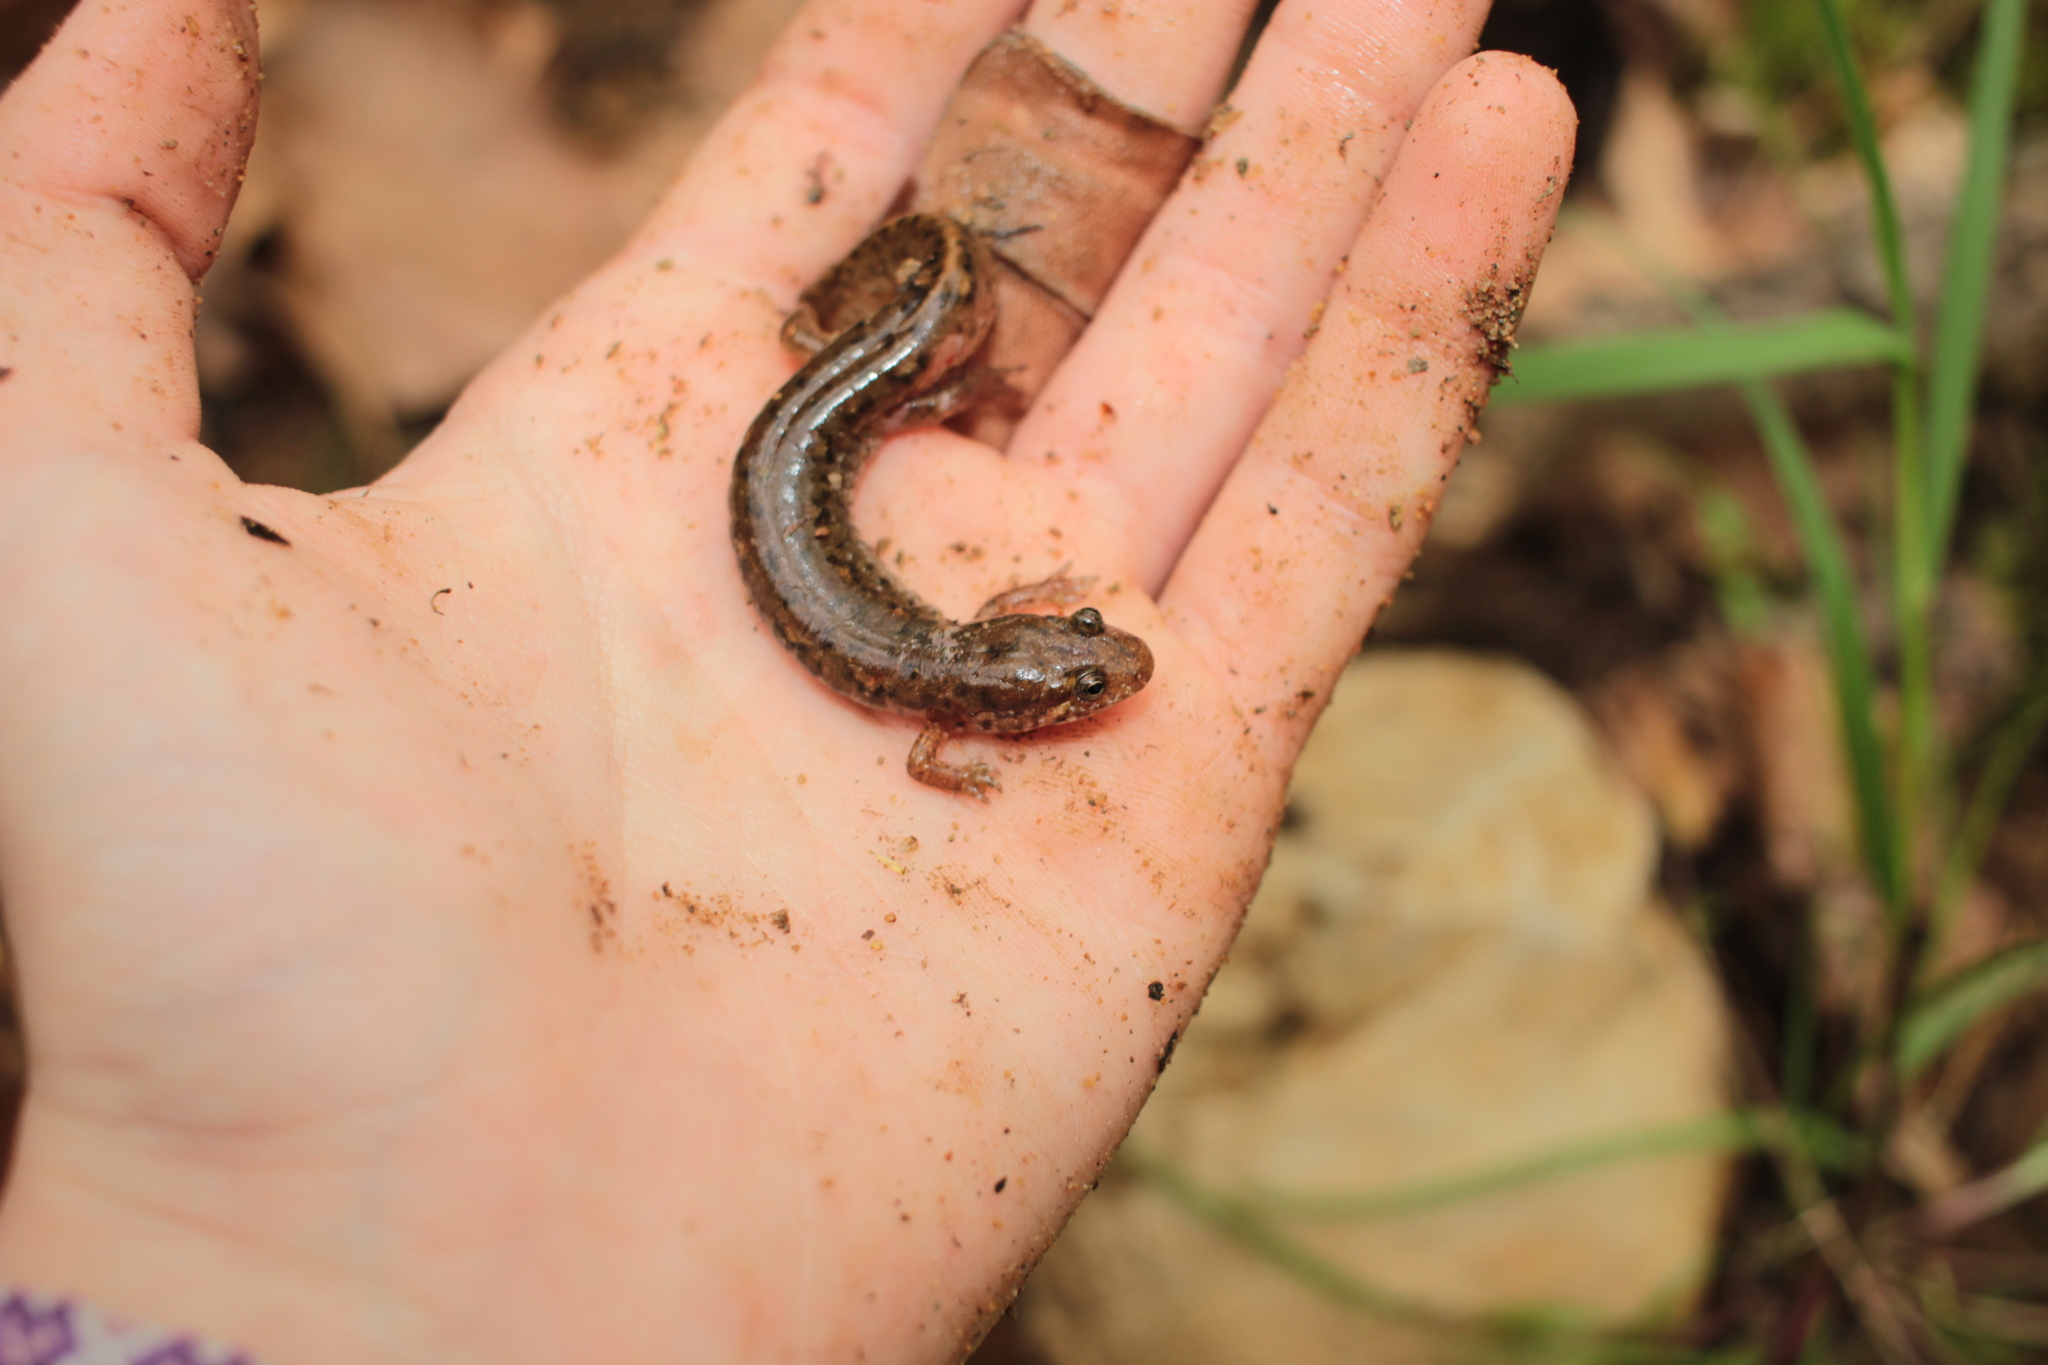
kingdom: Animalia
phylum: Chordata
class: Amphibia
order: Caudata
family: Plethodontidae
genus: Desmognathus
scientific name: Desmognathus planiceps
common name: Flat-headed salamander
